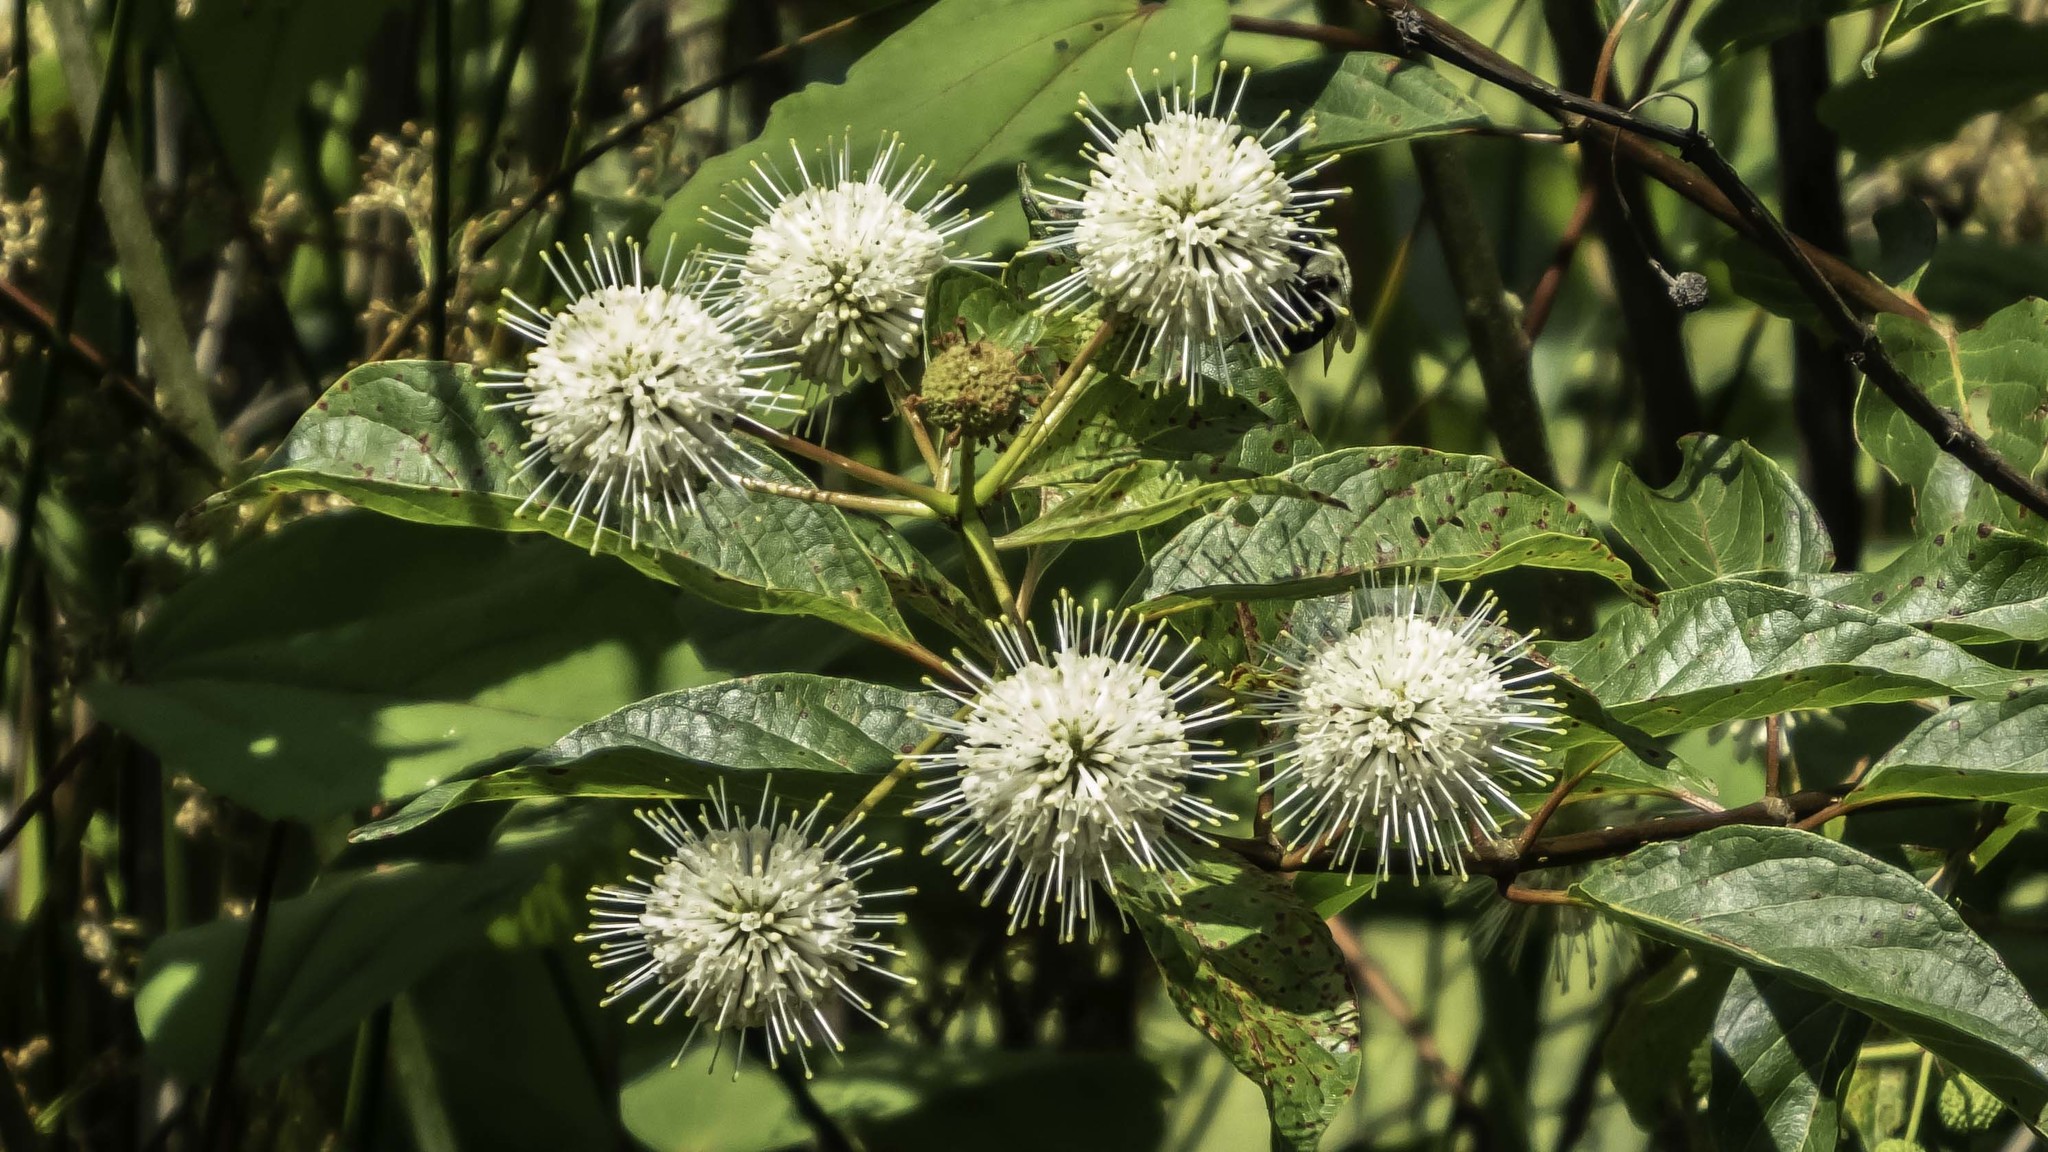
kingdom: Plantae
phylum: Tracheophyta
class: Magnoliopsida
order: Gentianales
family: Rubiaceae
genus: Cephalanthus
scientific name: Cephalanthus occidentalis
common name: Button-willow
